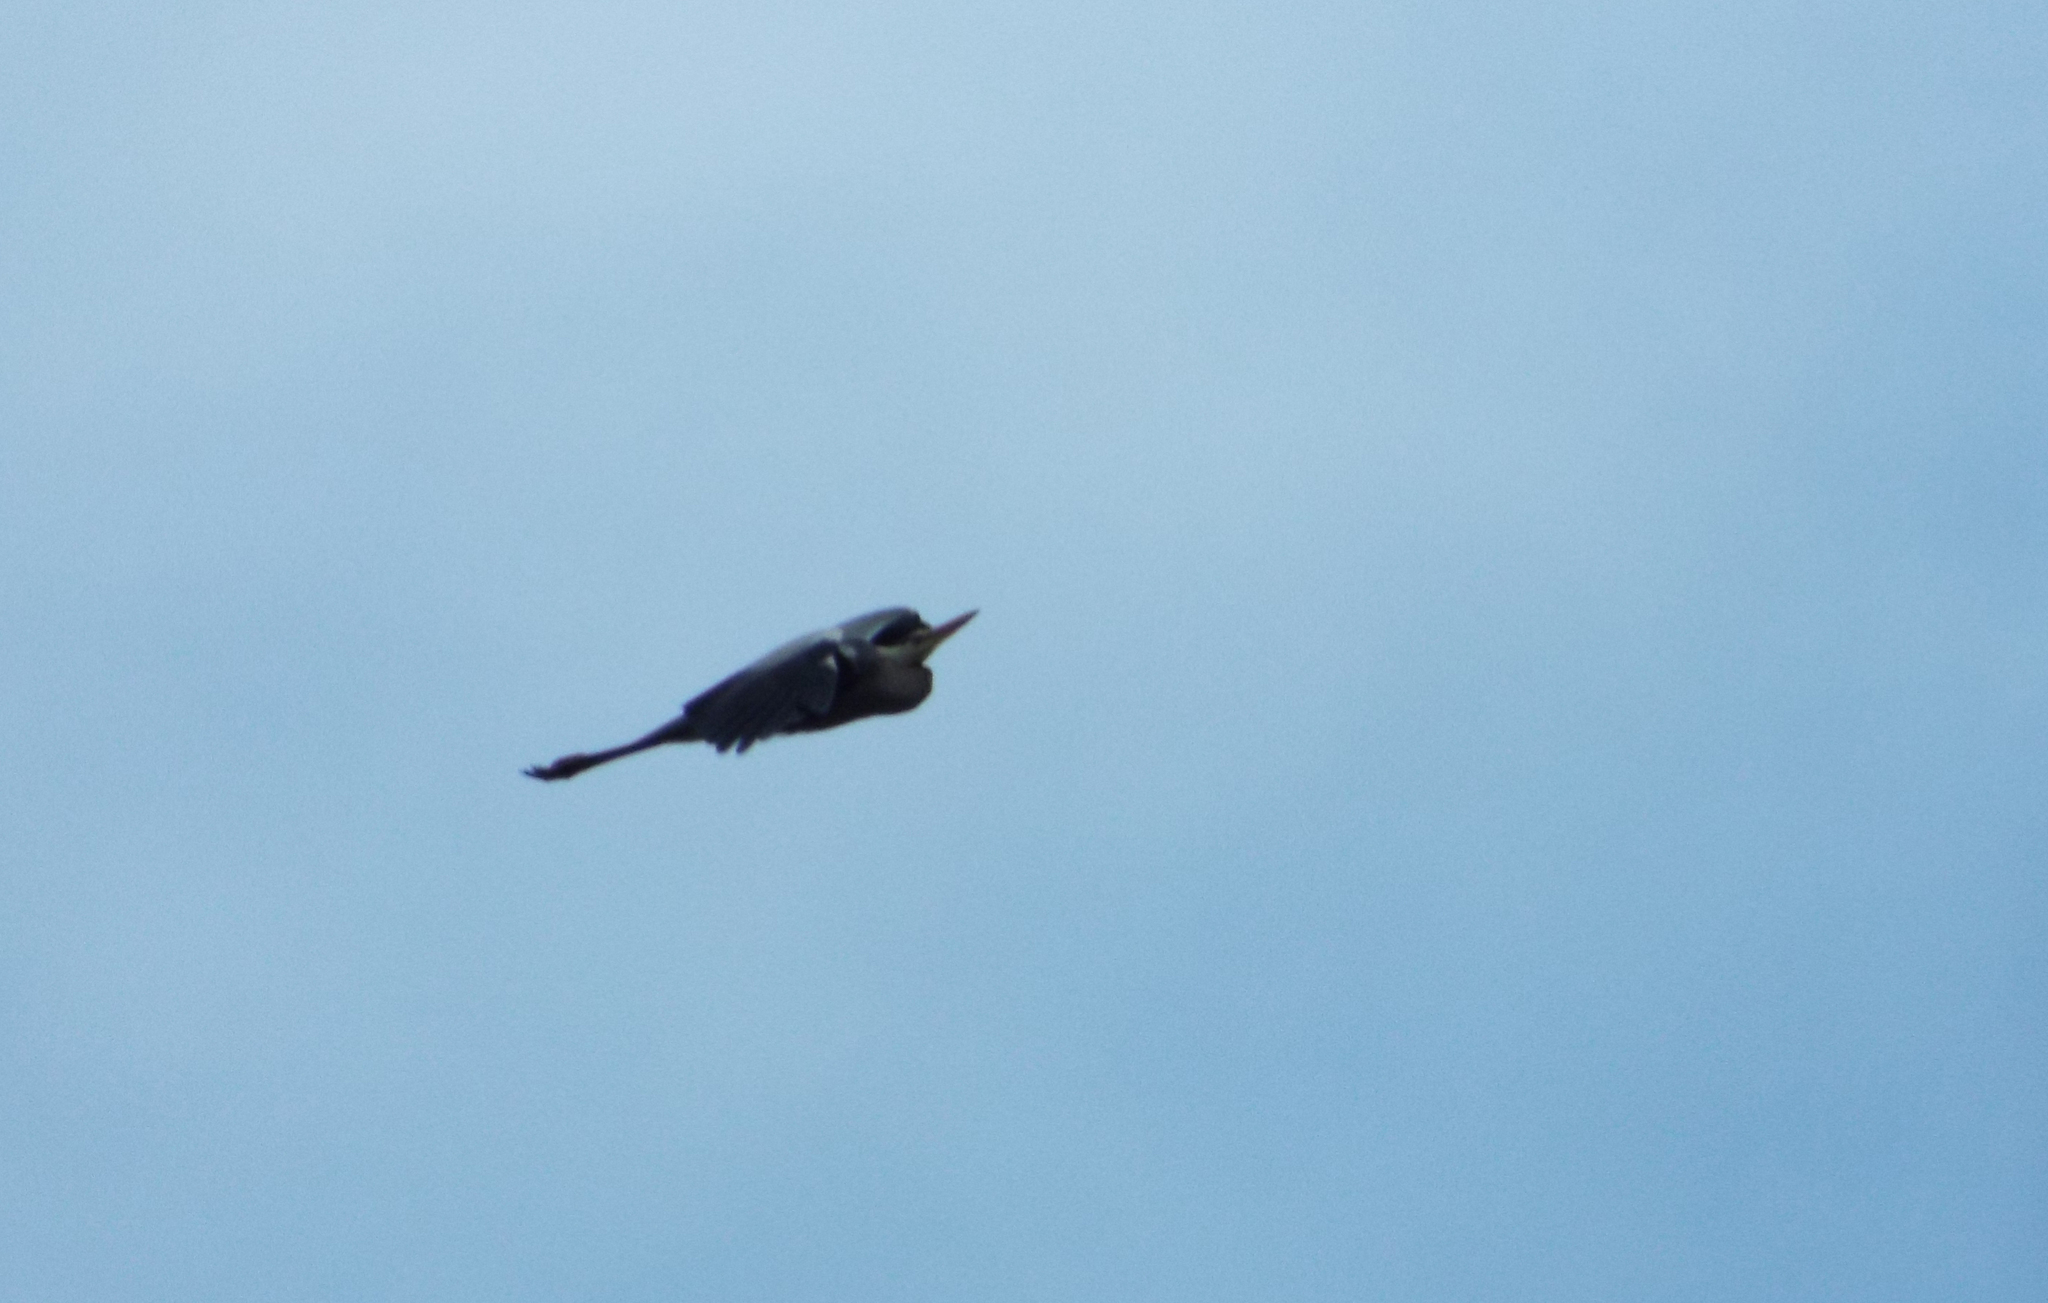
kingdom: Animalia
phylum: Chordata
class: Aves
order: Pelecaniformes
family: Ardeidae
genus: Ardea
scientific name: Ardea cinerea
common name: Grey heron
